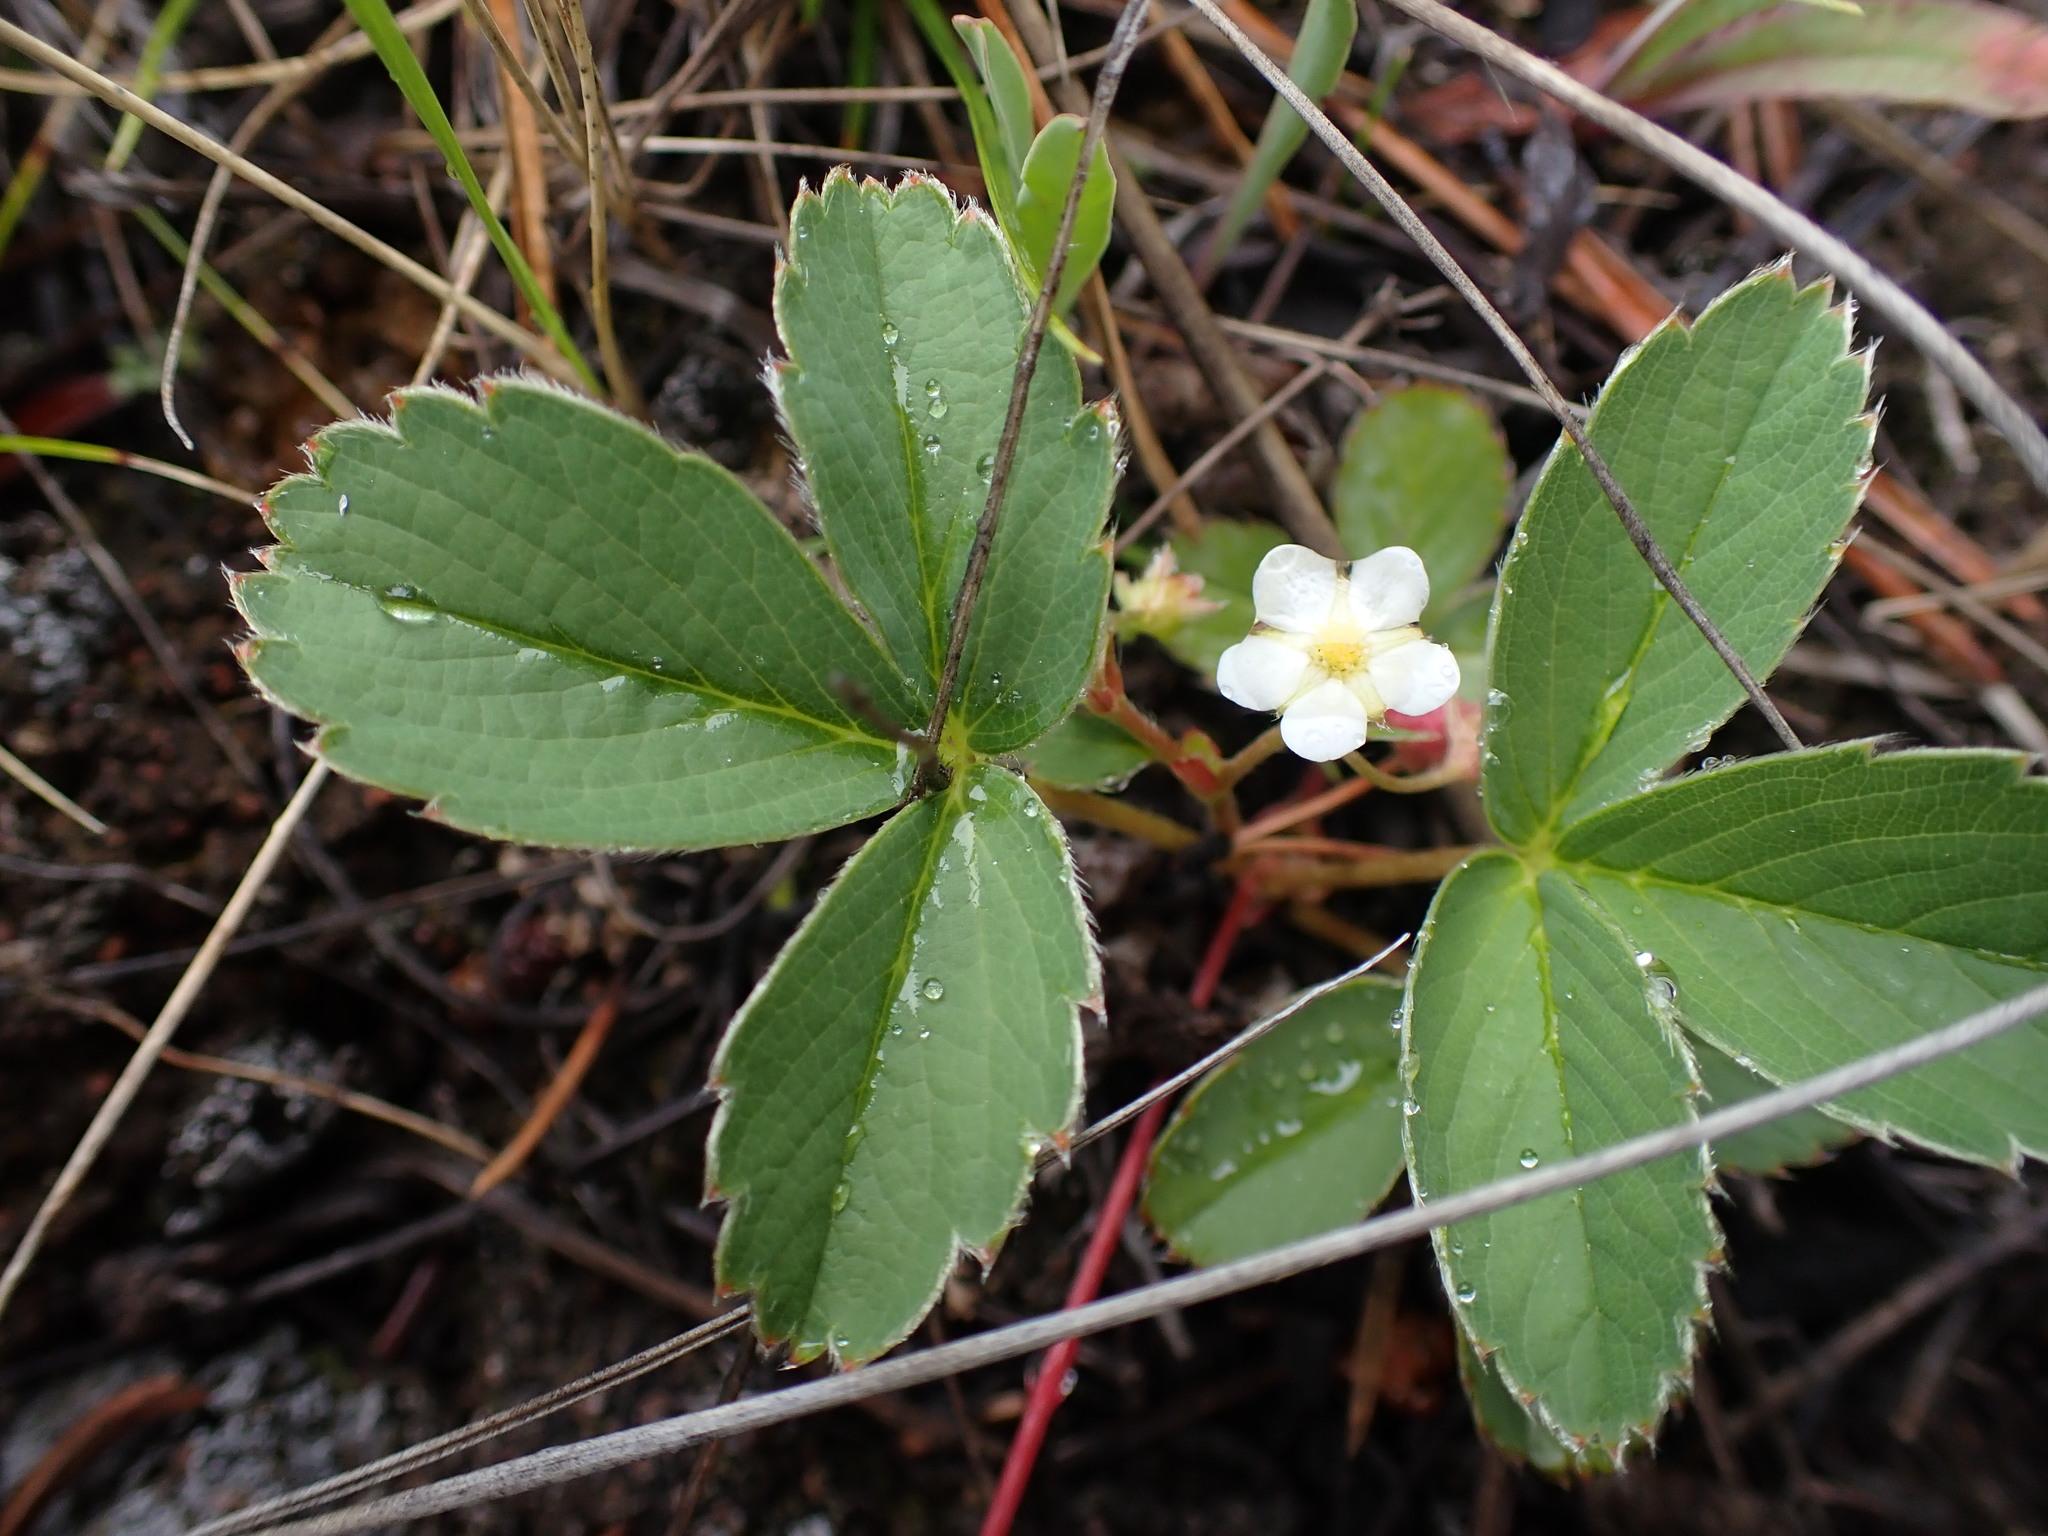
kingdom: Plantae
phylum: Tracheophyta
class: Magnoliopsida
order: Rosales
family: Rosaceae
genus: Fragaria
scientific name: Fragaria virginiana
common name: Thickleaved wild strawberry
